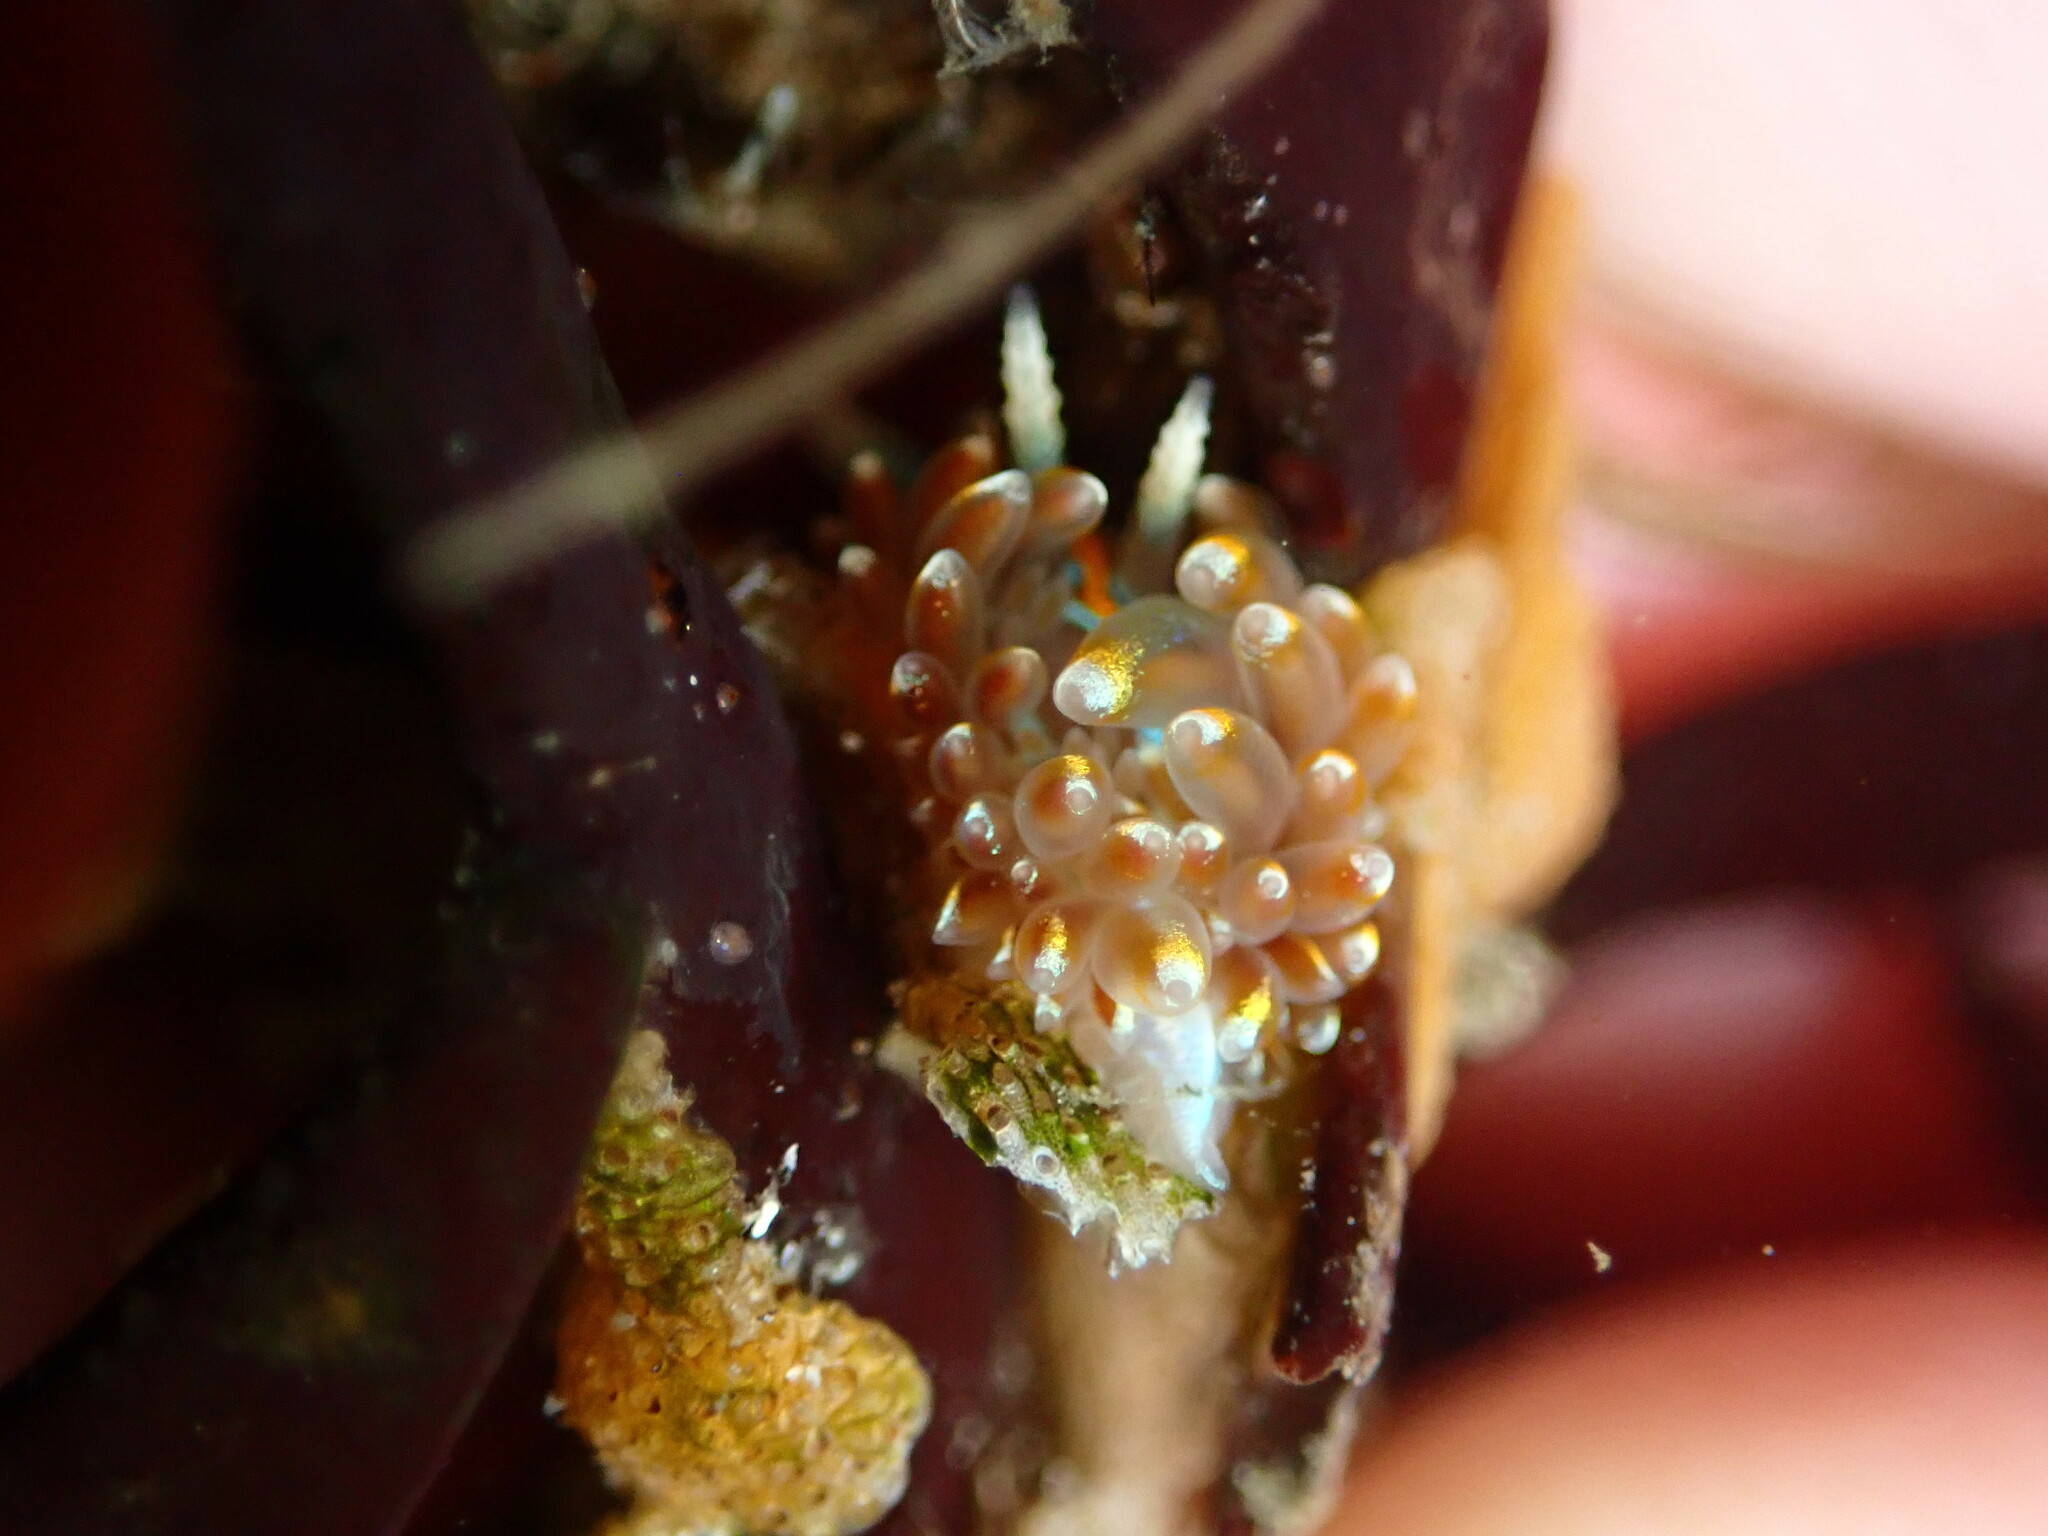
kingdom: Animalia
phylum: Mollusca
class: Gastropoda
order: Nudibranchia
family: Myrrhinidae
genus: Hermissenda
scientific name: Hermissenda opalescens
